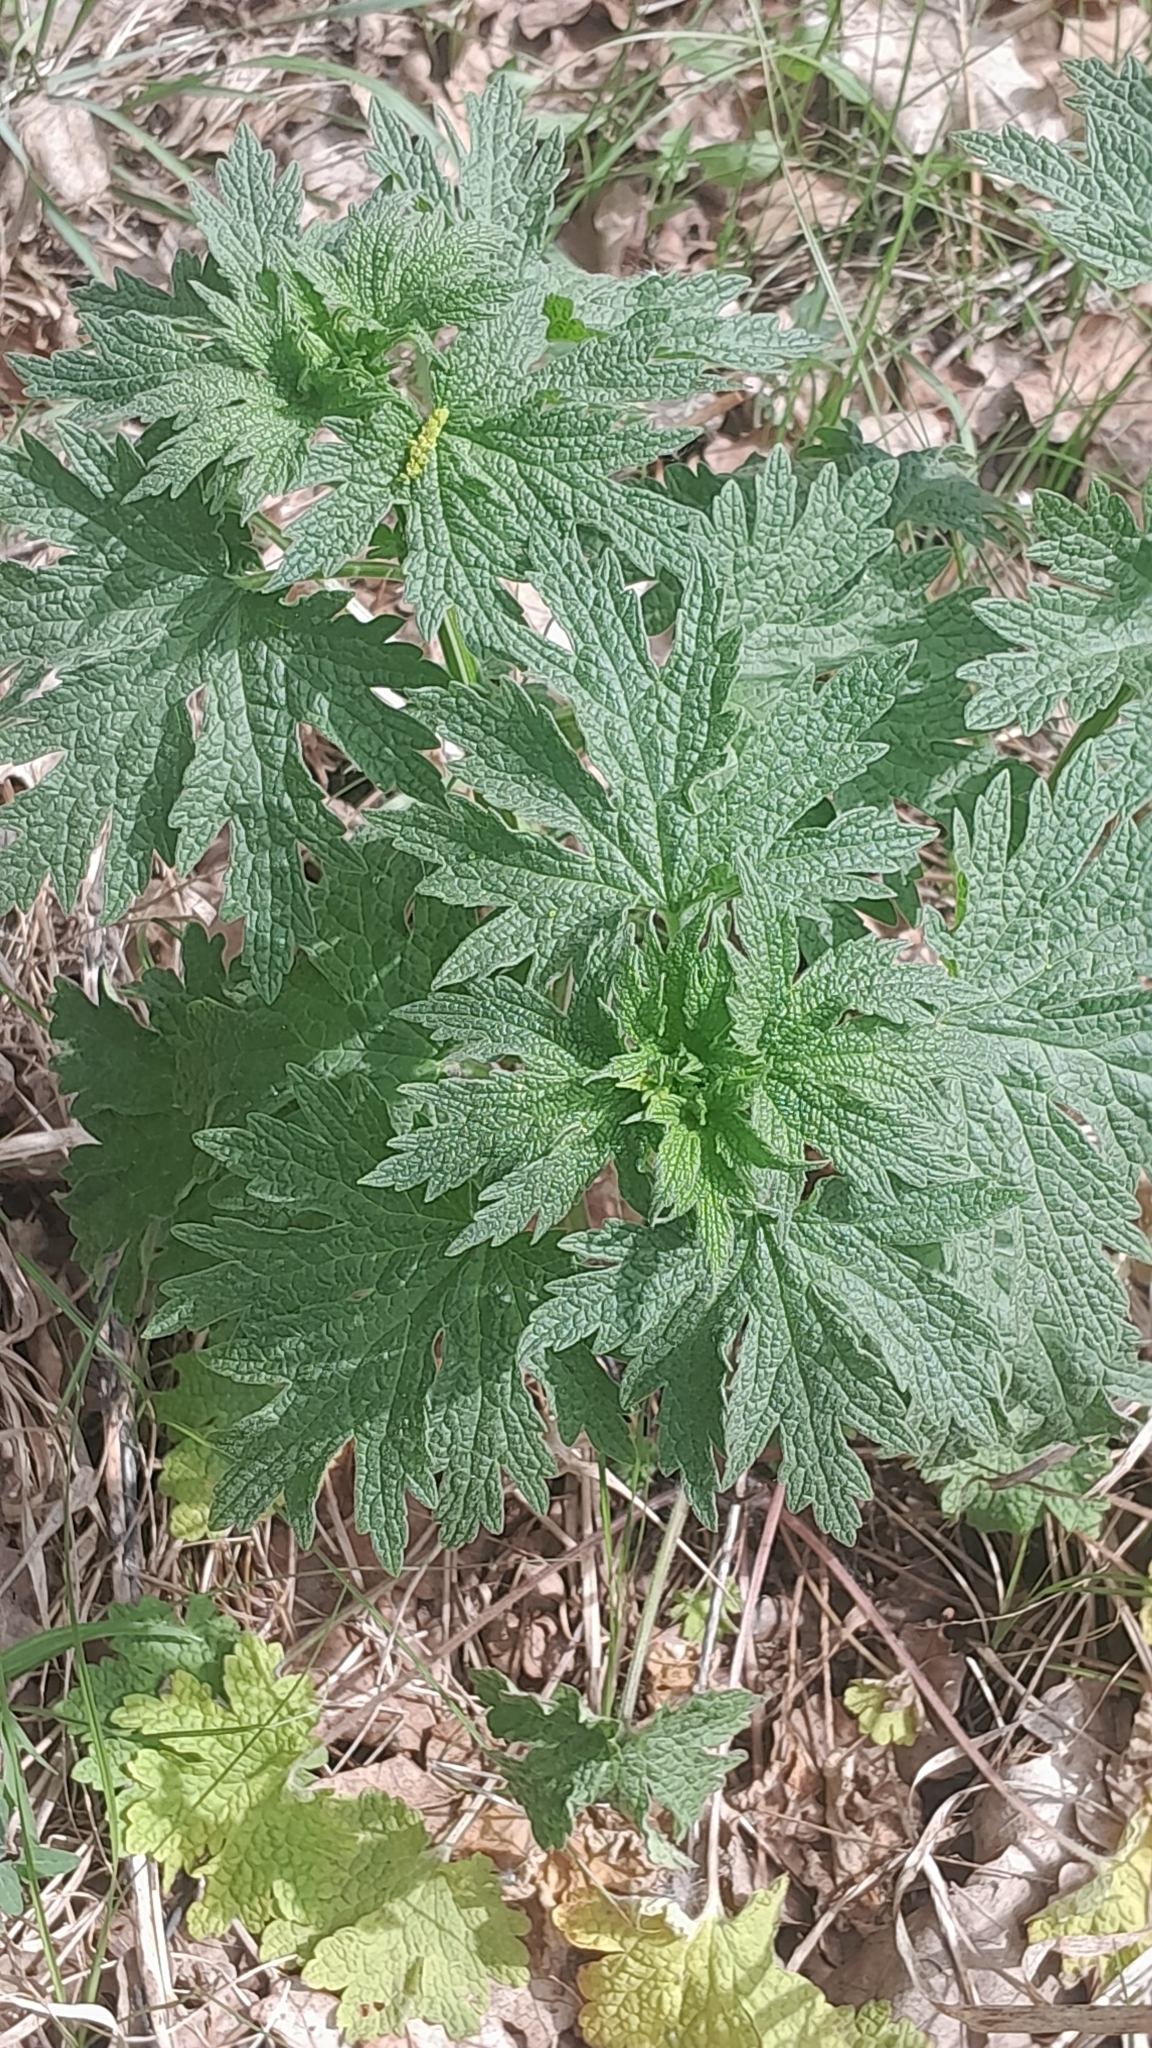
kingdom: Plantae
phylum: Tracheophyta
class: Magnoliopsida
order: Lamiales
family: Lamiaceae
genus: Leonurus
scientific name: Leonurus cardiaca
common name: Motherwort
